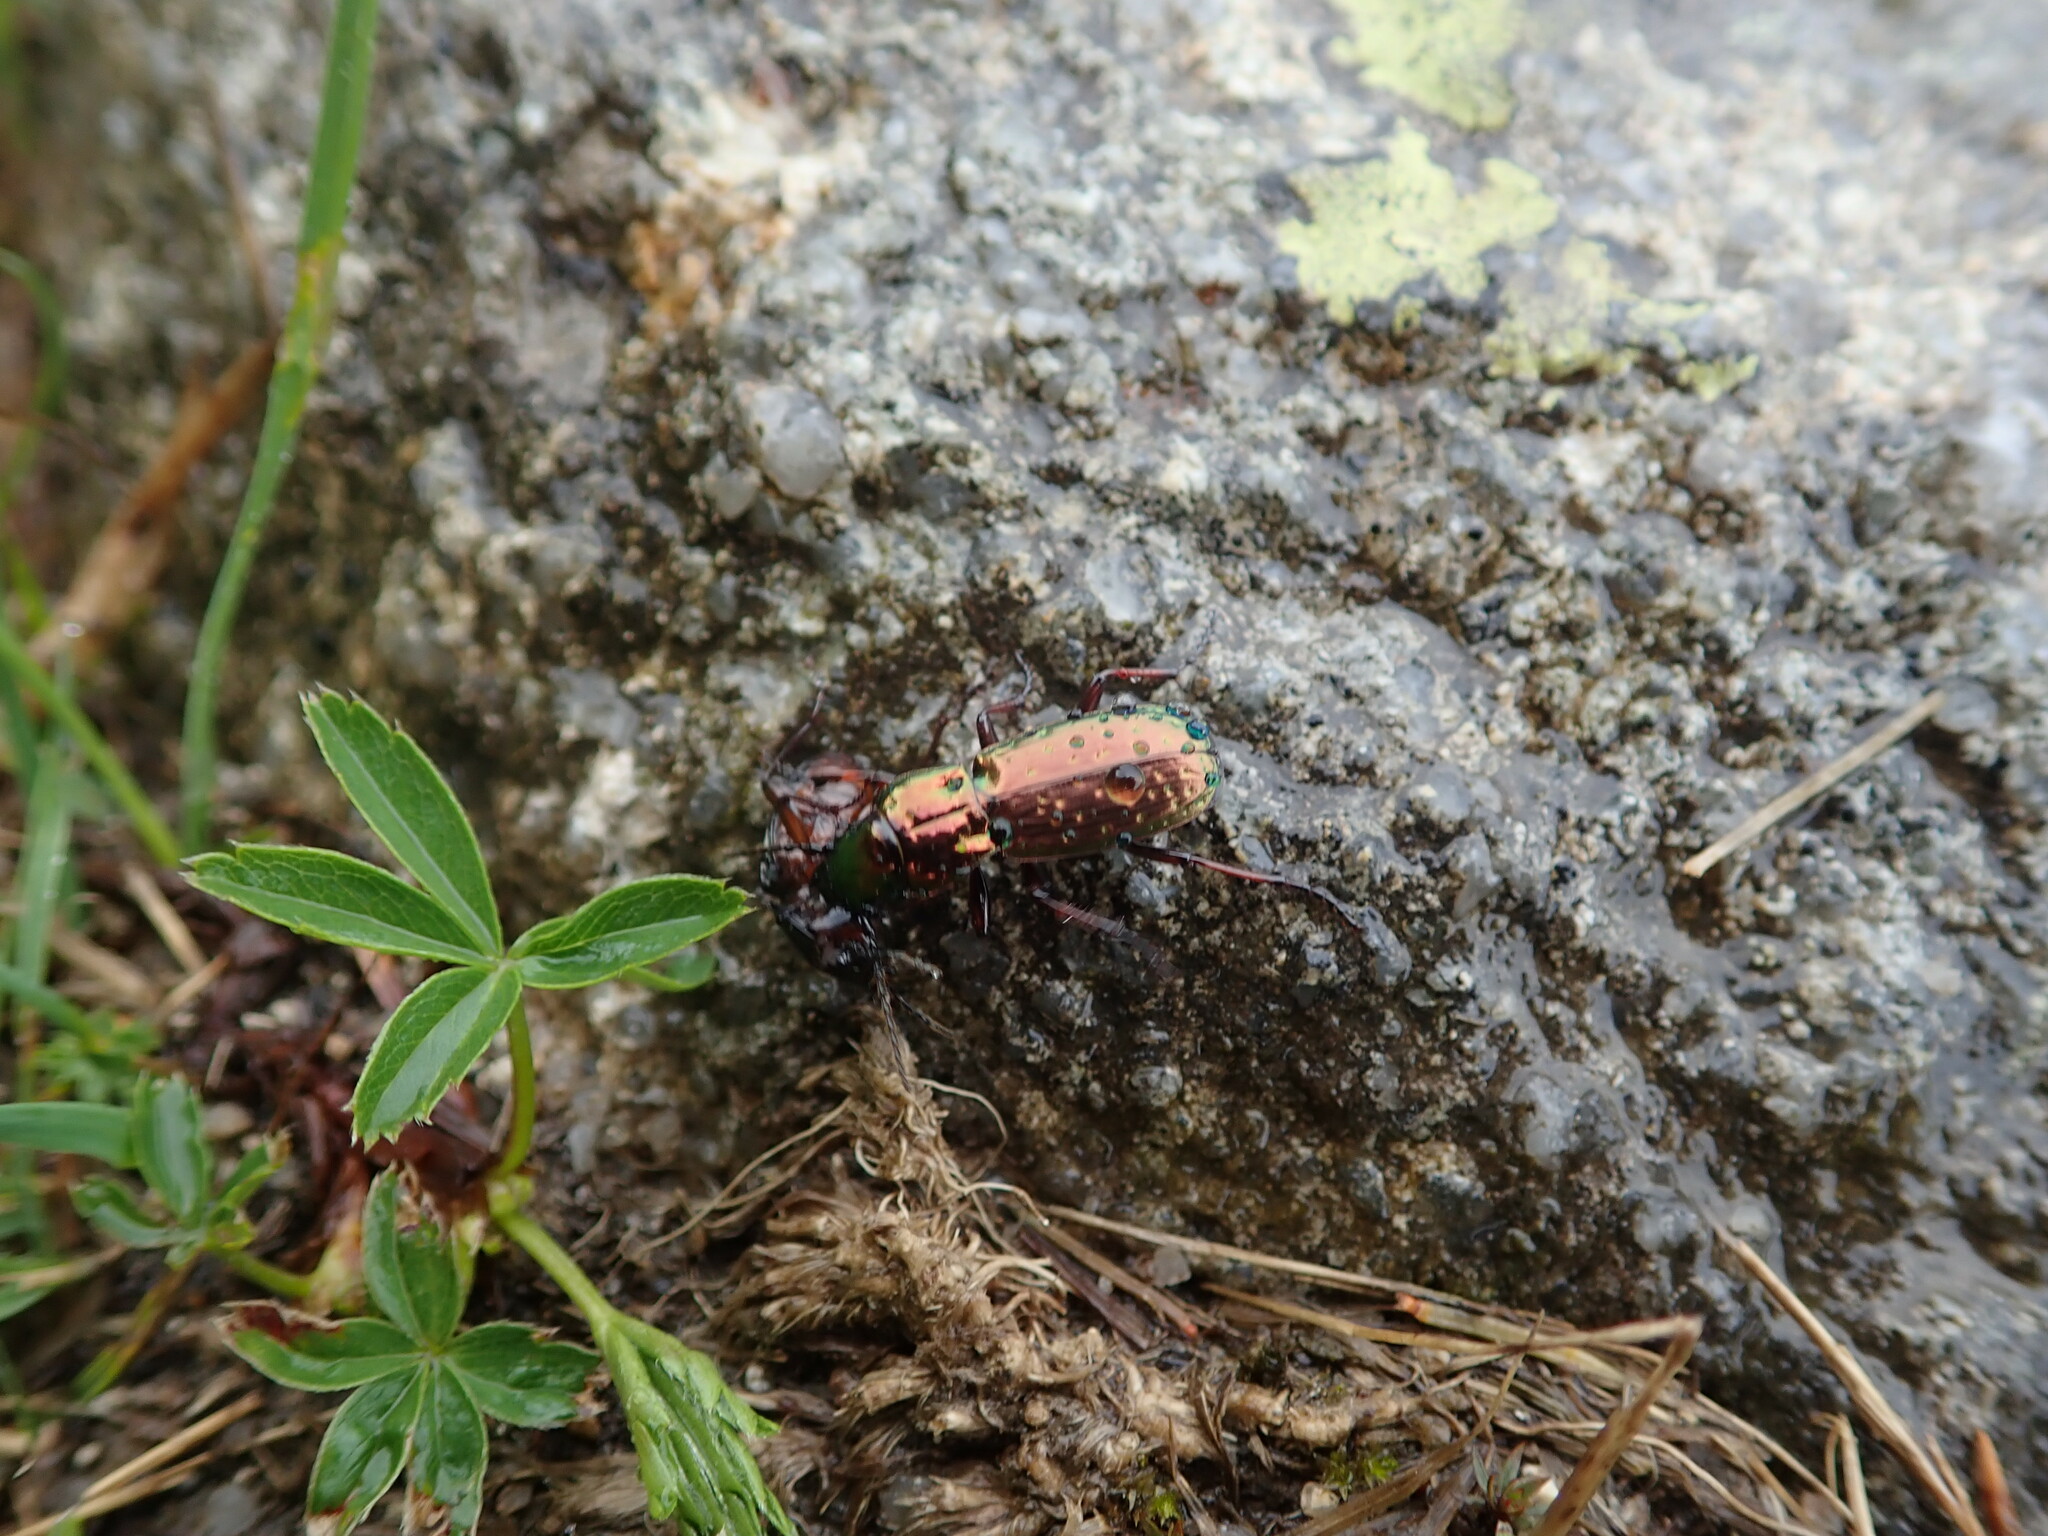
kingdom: Animalia
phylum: Arthropoda
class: Insecta
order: Coleoptera
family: Carabidae
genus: Pterostichus
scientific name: Pterostichus pilosus
